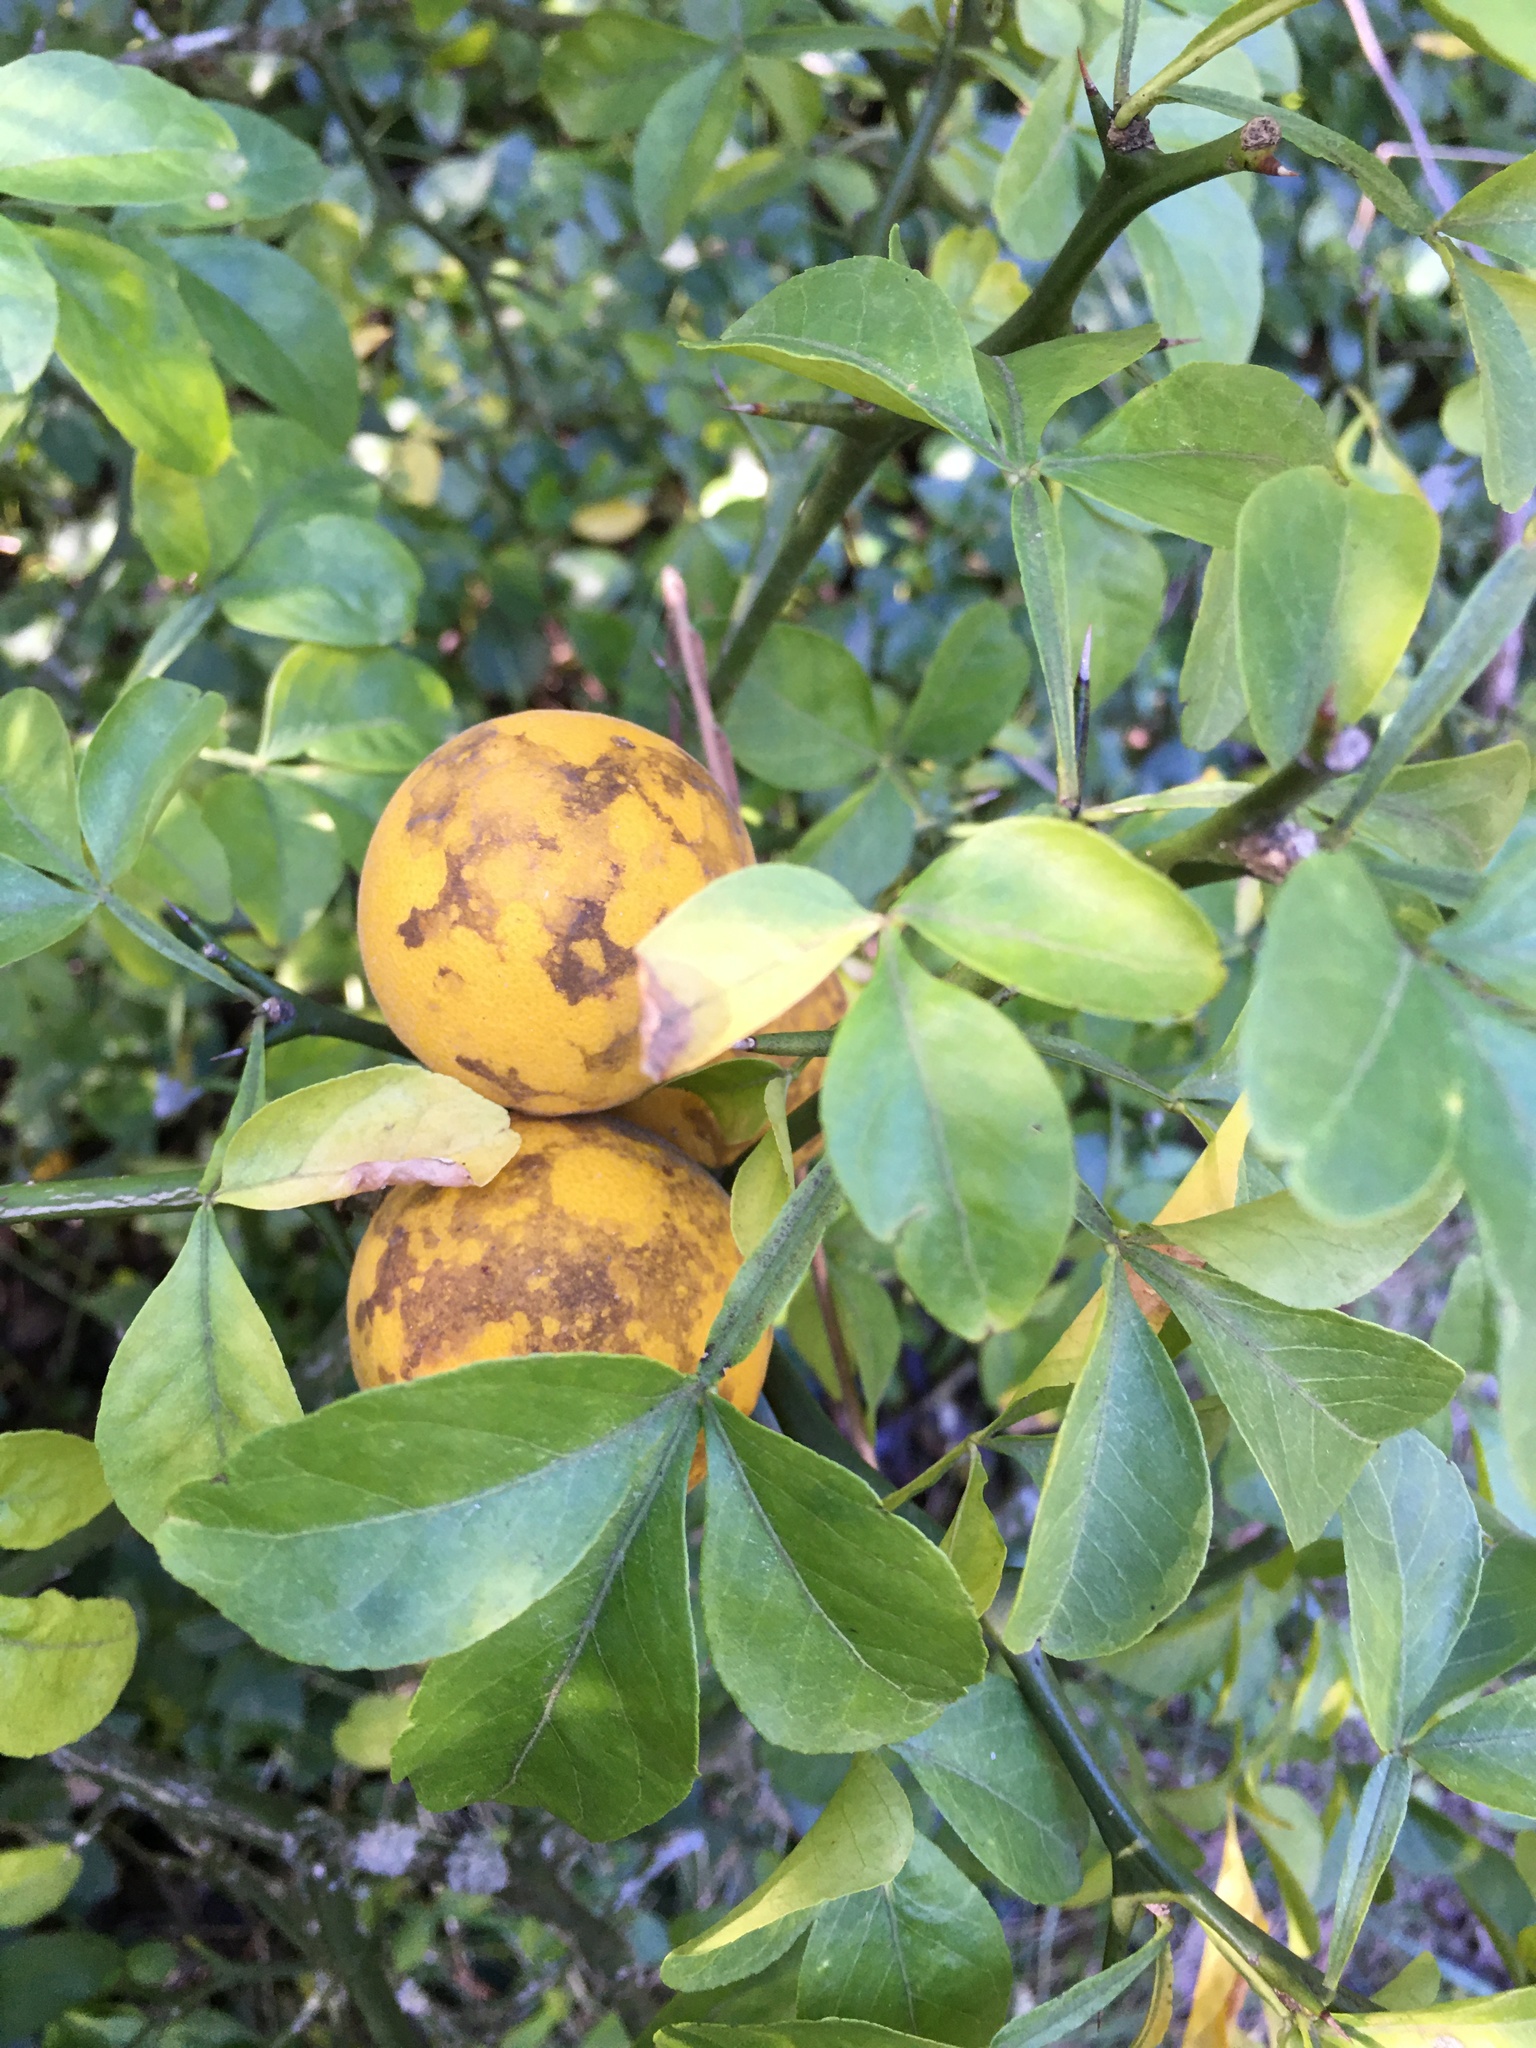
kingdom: Plantae
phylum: Tracheophyta
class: Magnoliopsida
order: Sapindales
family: Rutaceae
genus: Citrus
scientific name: Citrus trifoliata
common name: Japanese bitter-orange
